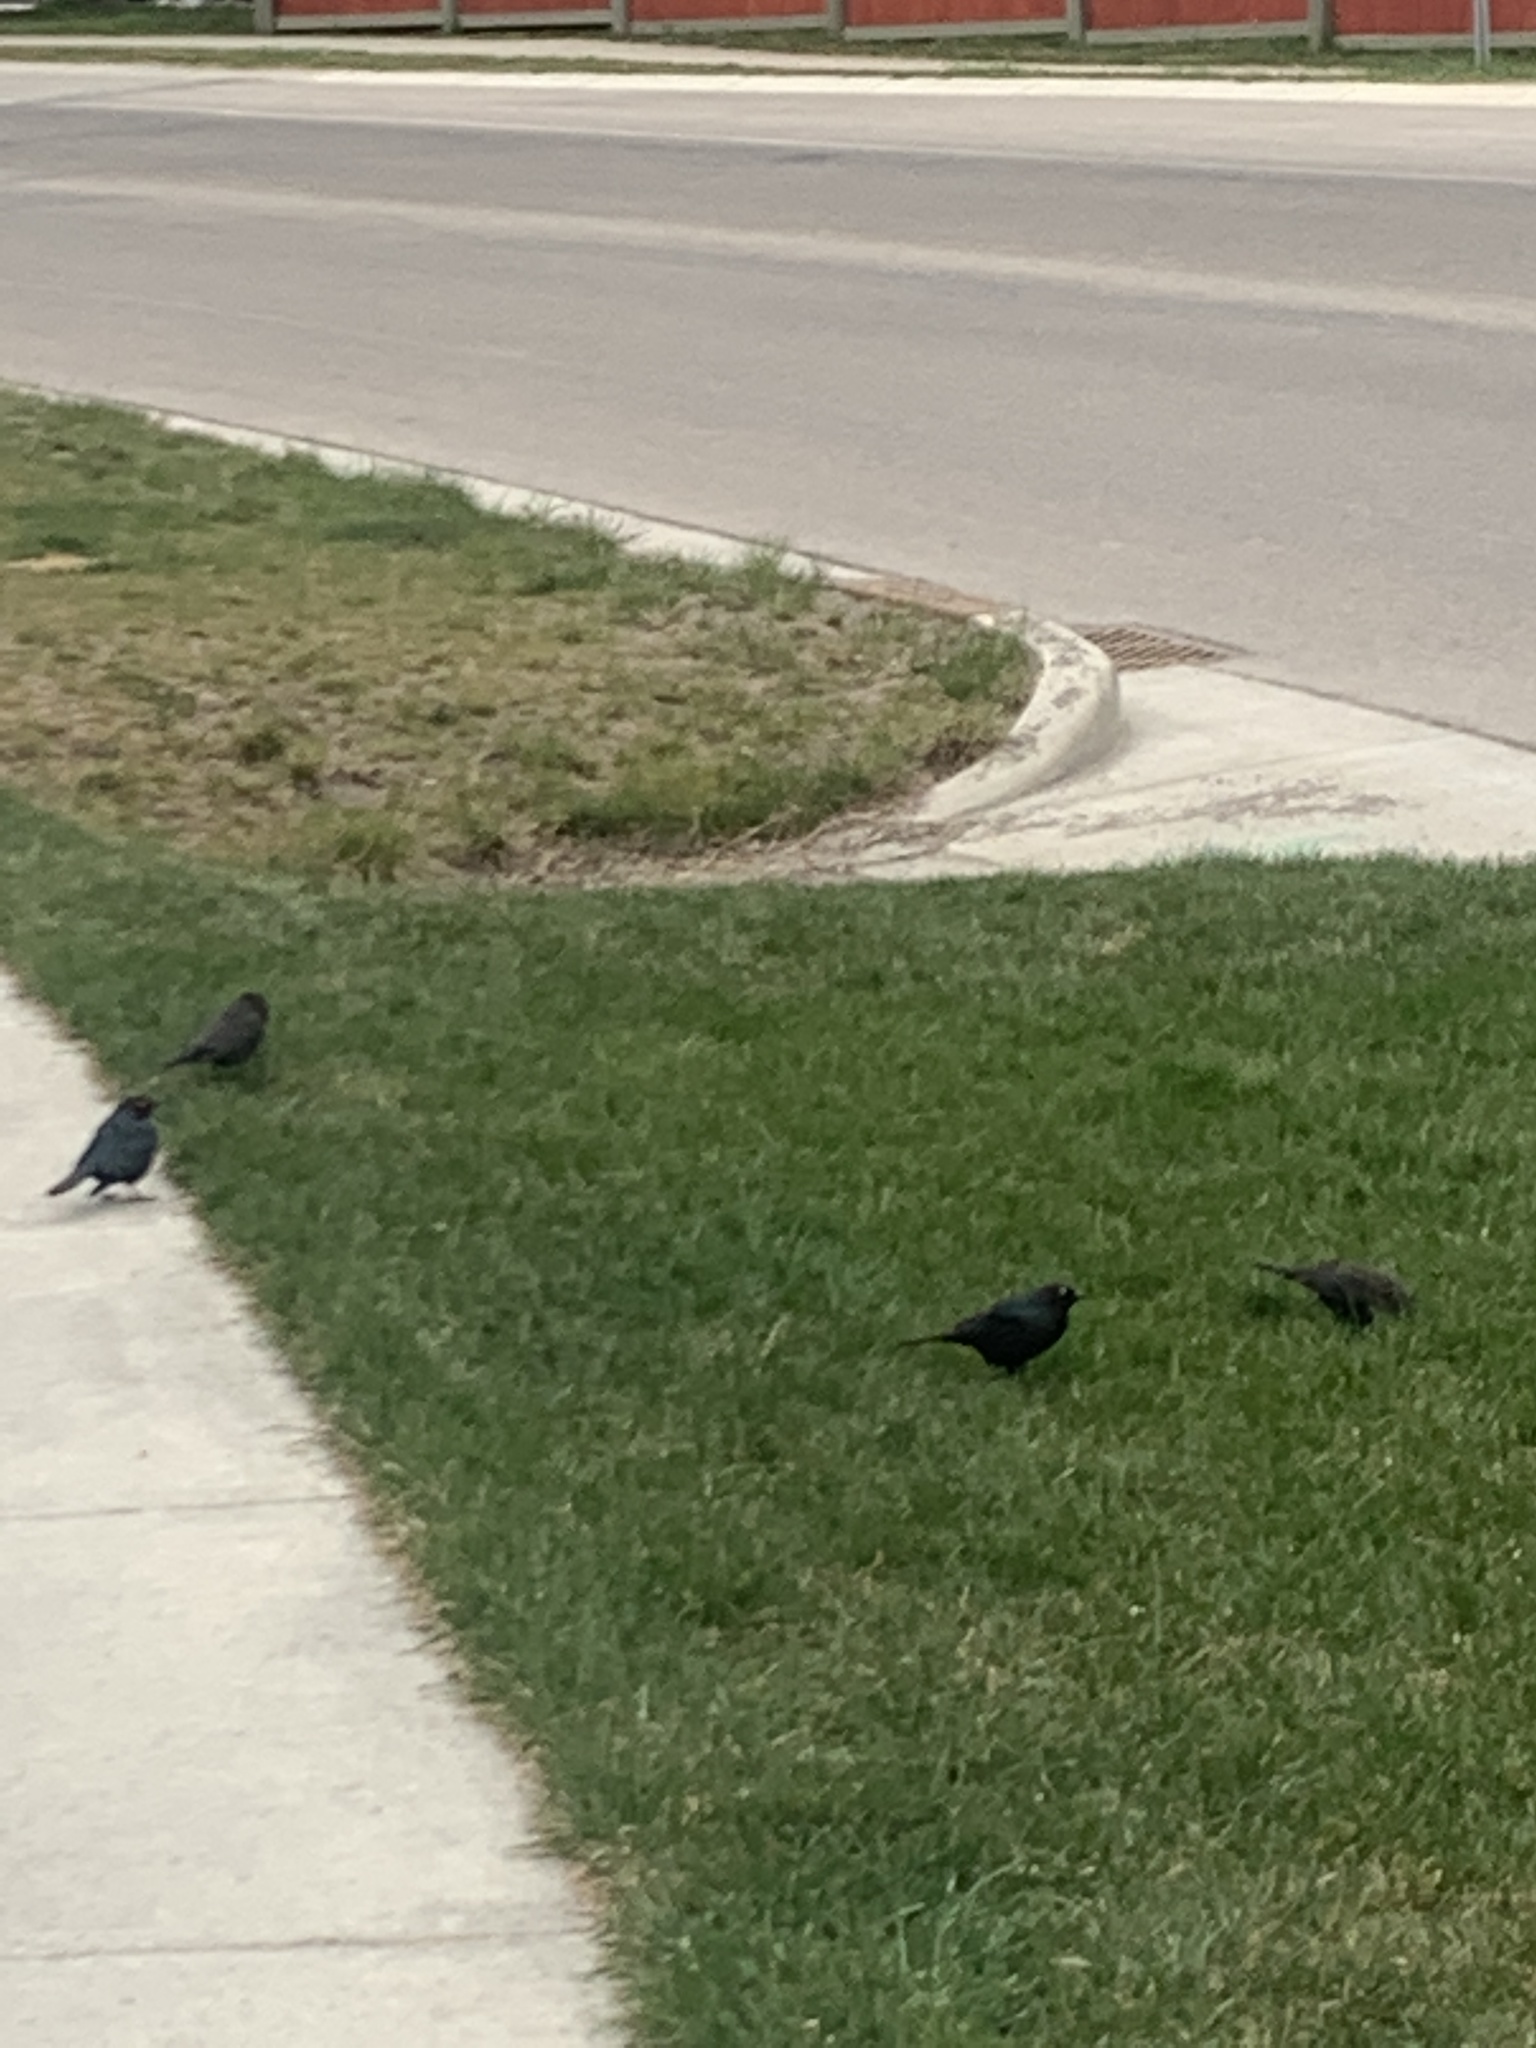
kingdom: Animalia
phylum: Chordata
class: Aves
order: Passeriformes
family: Icteridae
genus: Euphagus
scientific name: Euphagus cyanocephalus
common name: Brewer's blackbird
